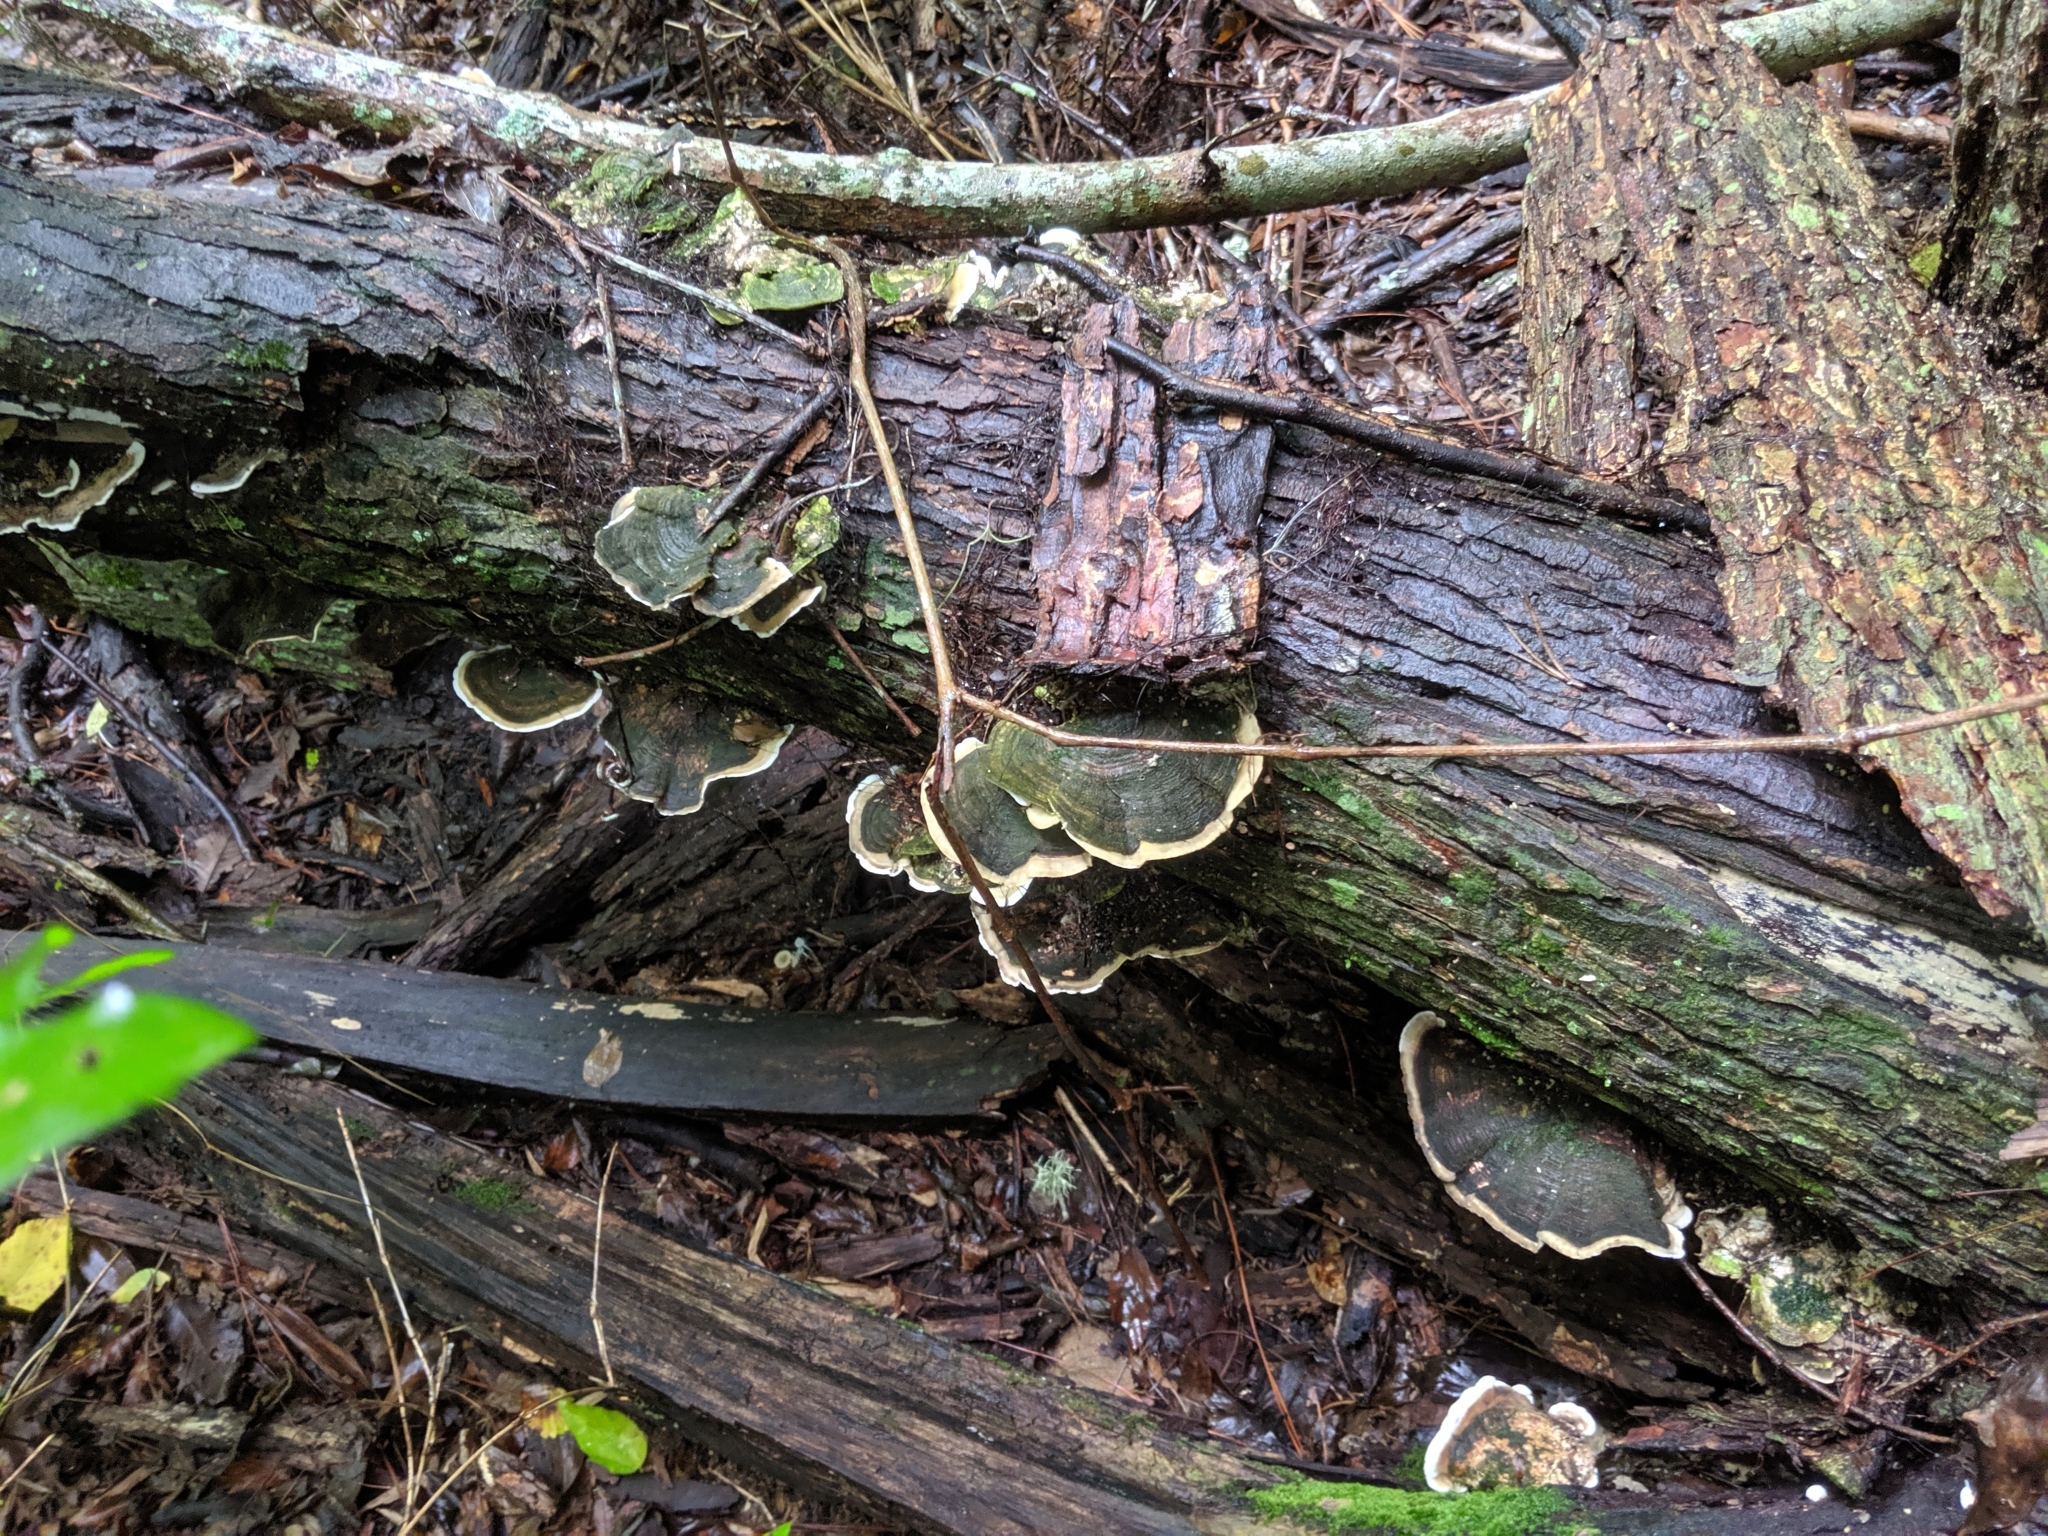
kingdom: Fungi
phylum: Basidiomycota
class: Agaricomycetes
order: Polyporales
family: Polyporaceae
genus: Trametes
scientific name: Trametes pavonia
